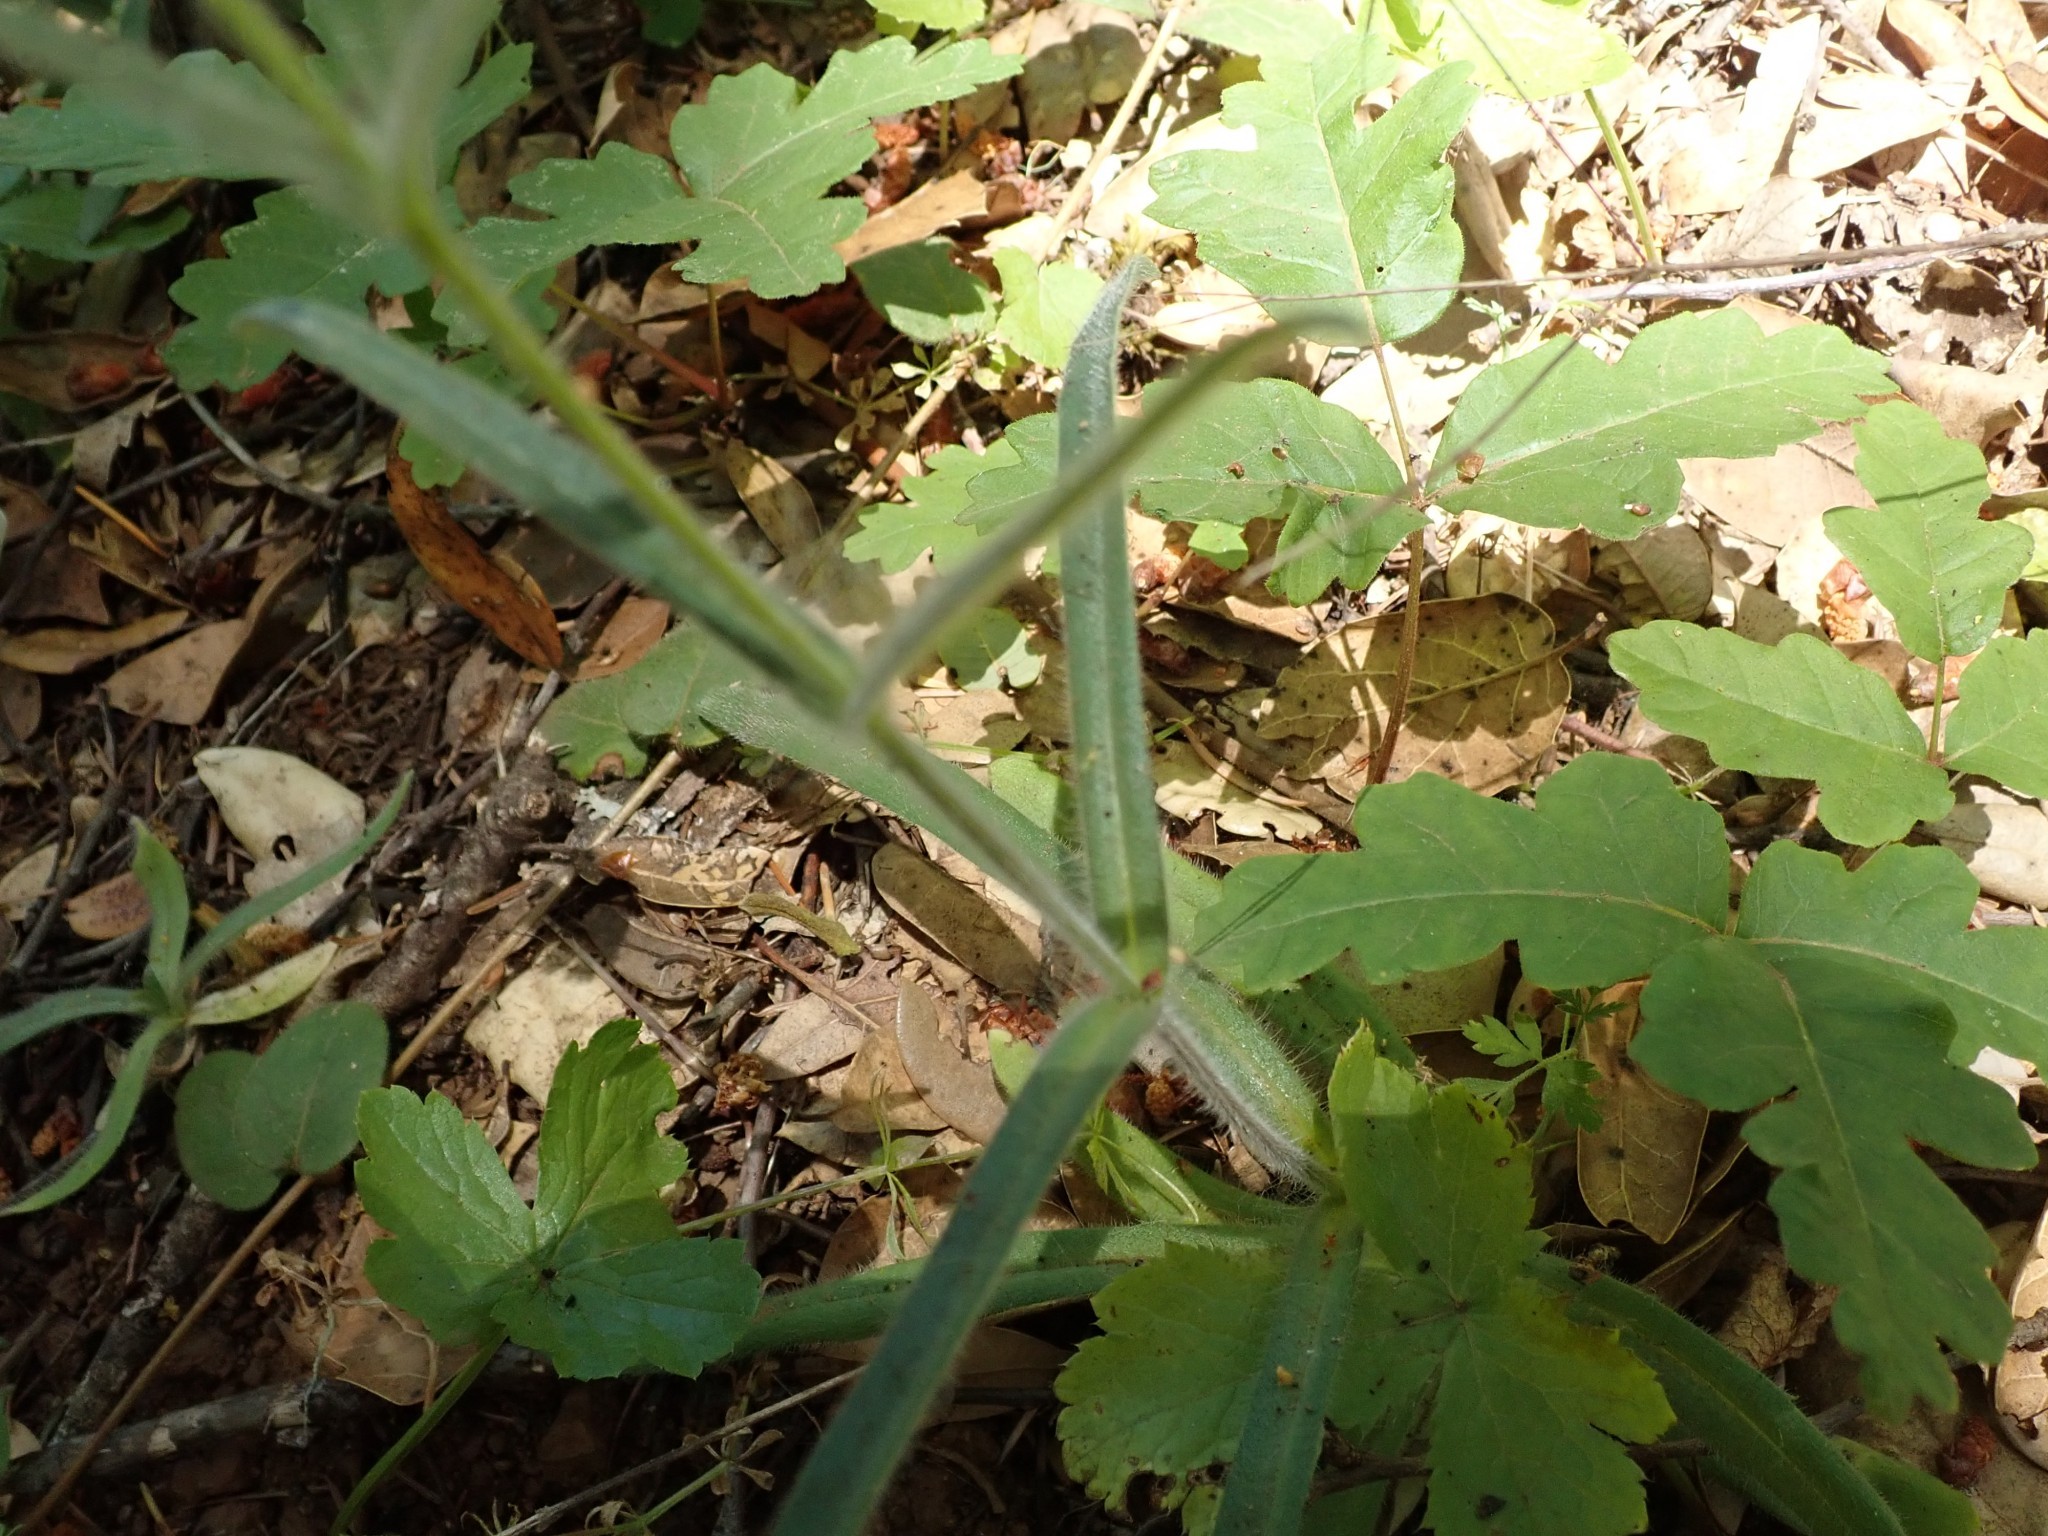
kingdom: Plantae
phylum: Tracheophyta
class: Magnoliopsida
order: Asterales
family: Asteraceae
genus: Anisocarpus
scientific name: Anisocarpus madioides
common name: Woodland madia
